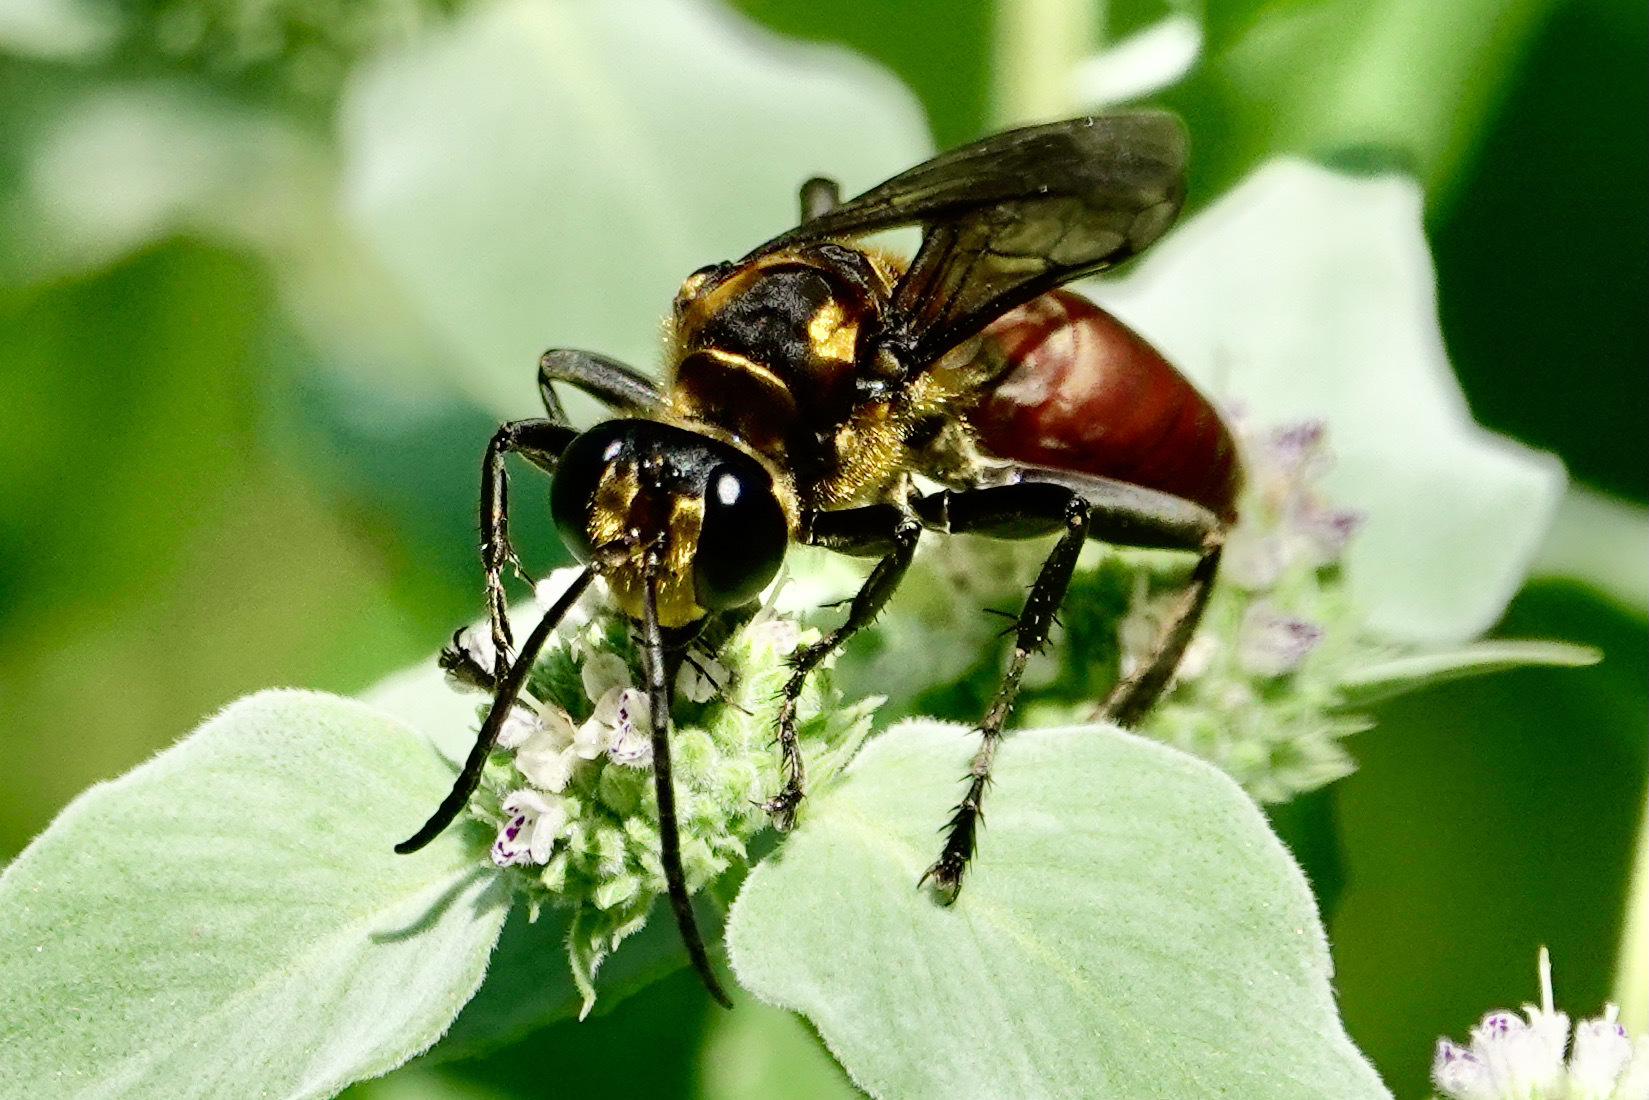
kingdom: Animalia
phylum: Arthropoda
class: Insecta
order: Hymenoptera
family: Sphecidae
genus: Sphex
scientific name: Sphex habenus
